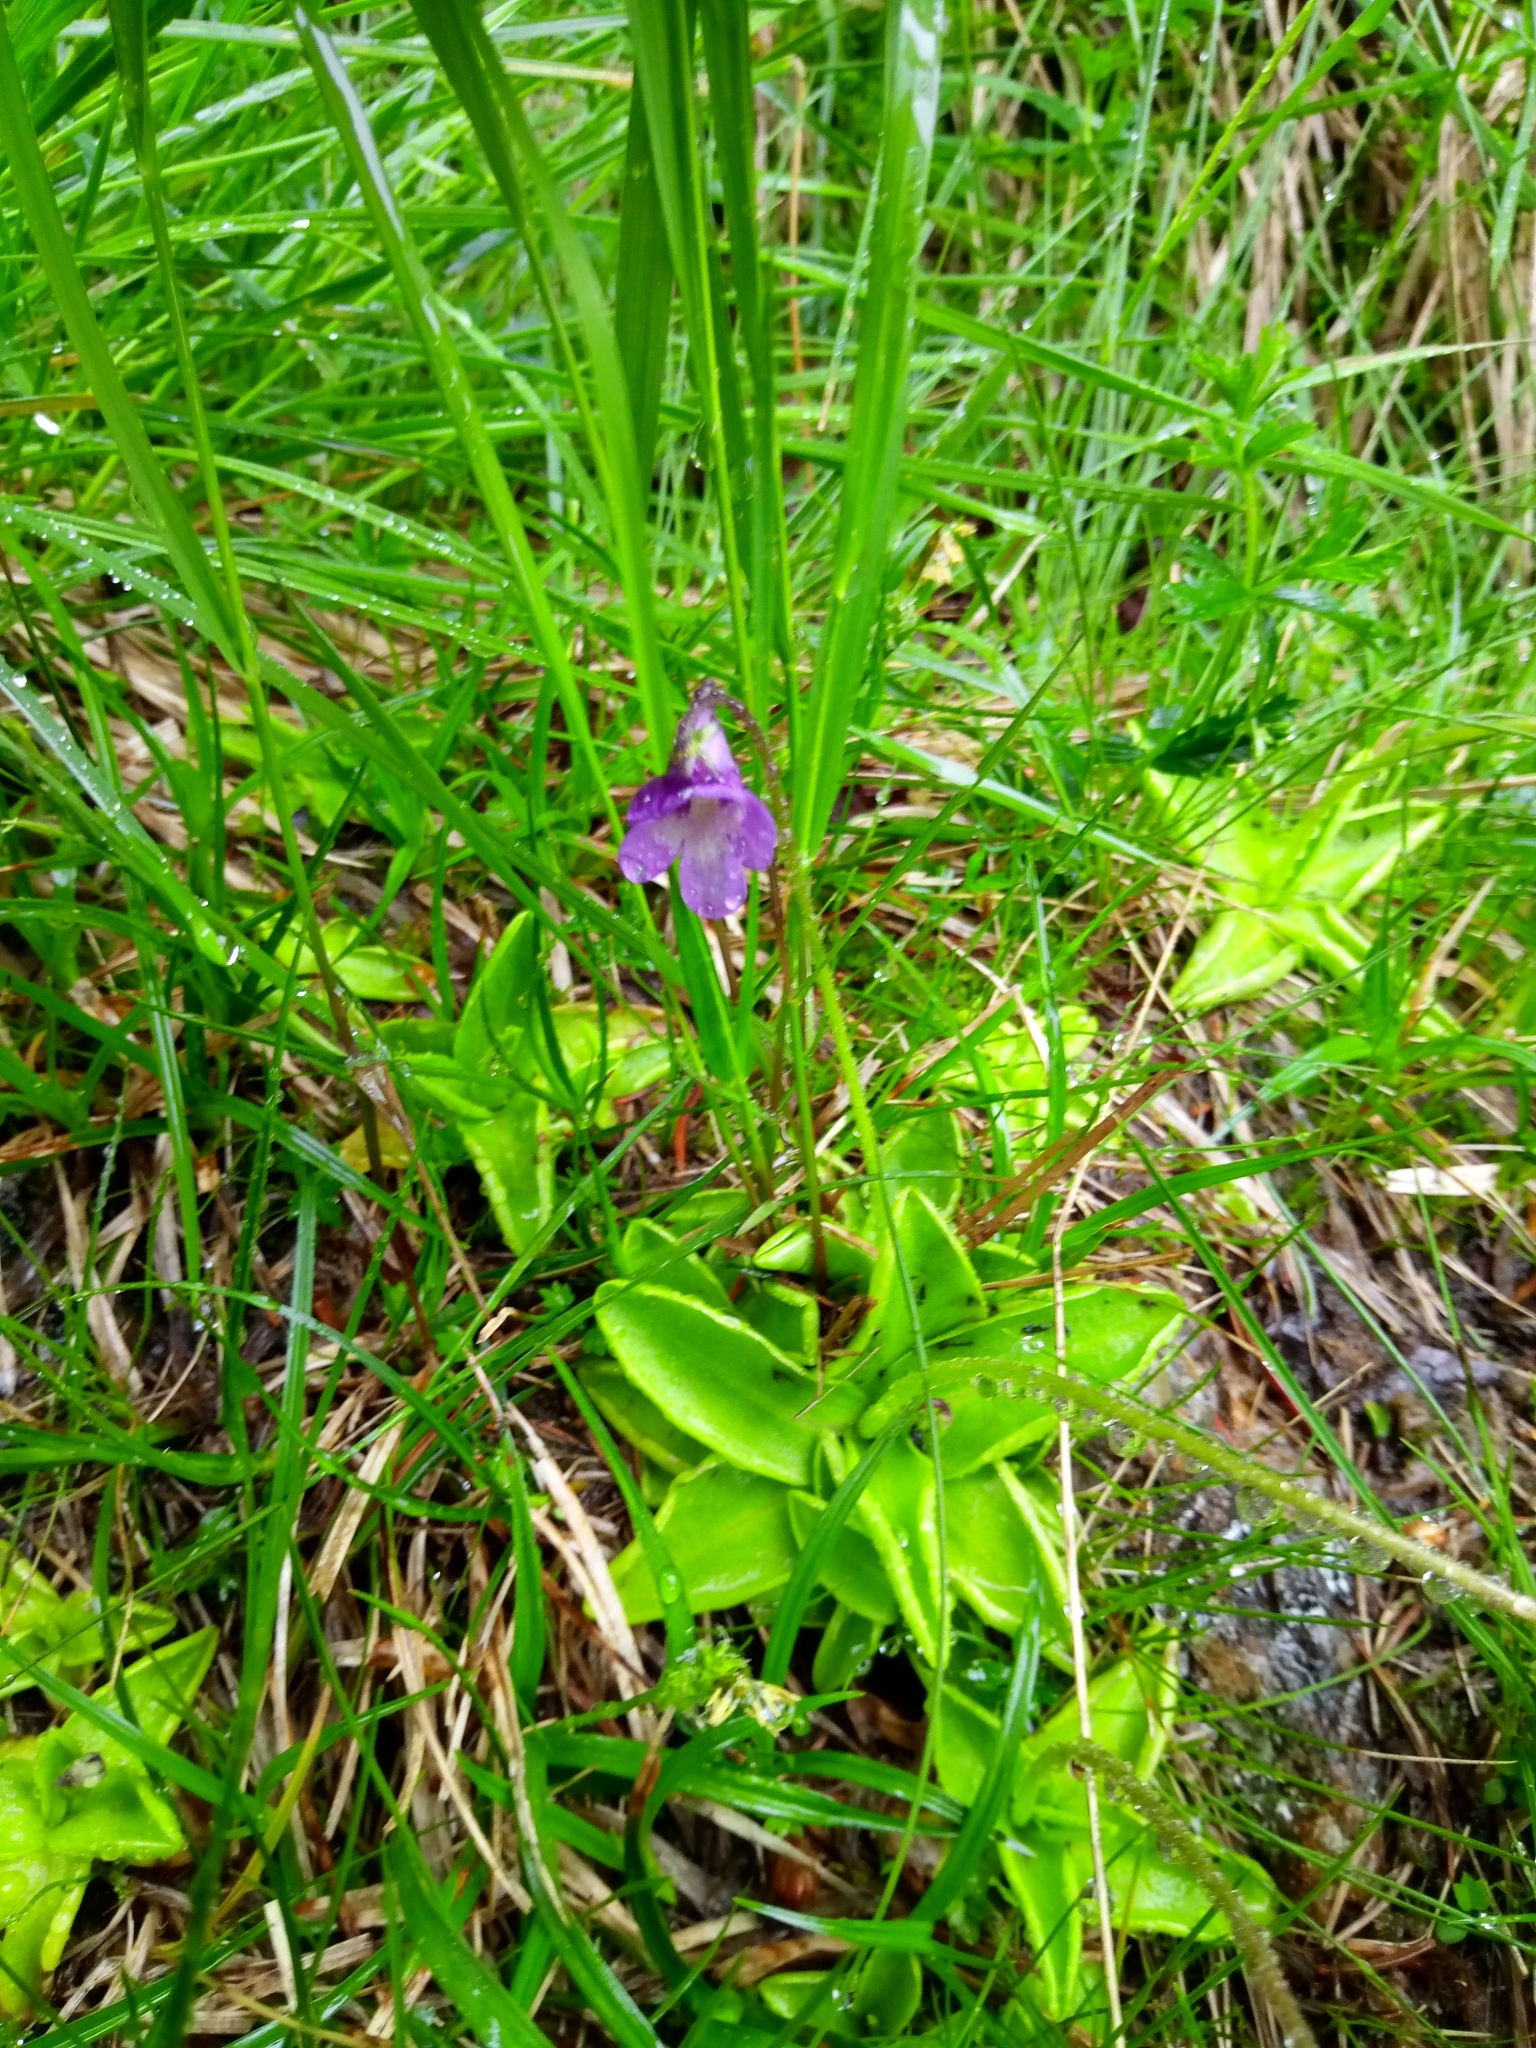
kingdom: Plantae
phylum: Tracheophyta
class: Magnoliopsida
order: Lamiales
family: Lentibulariaceae
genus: Pinguicula
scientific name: Pinguicula vulgaris
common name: Common butterwort
